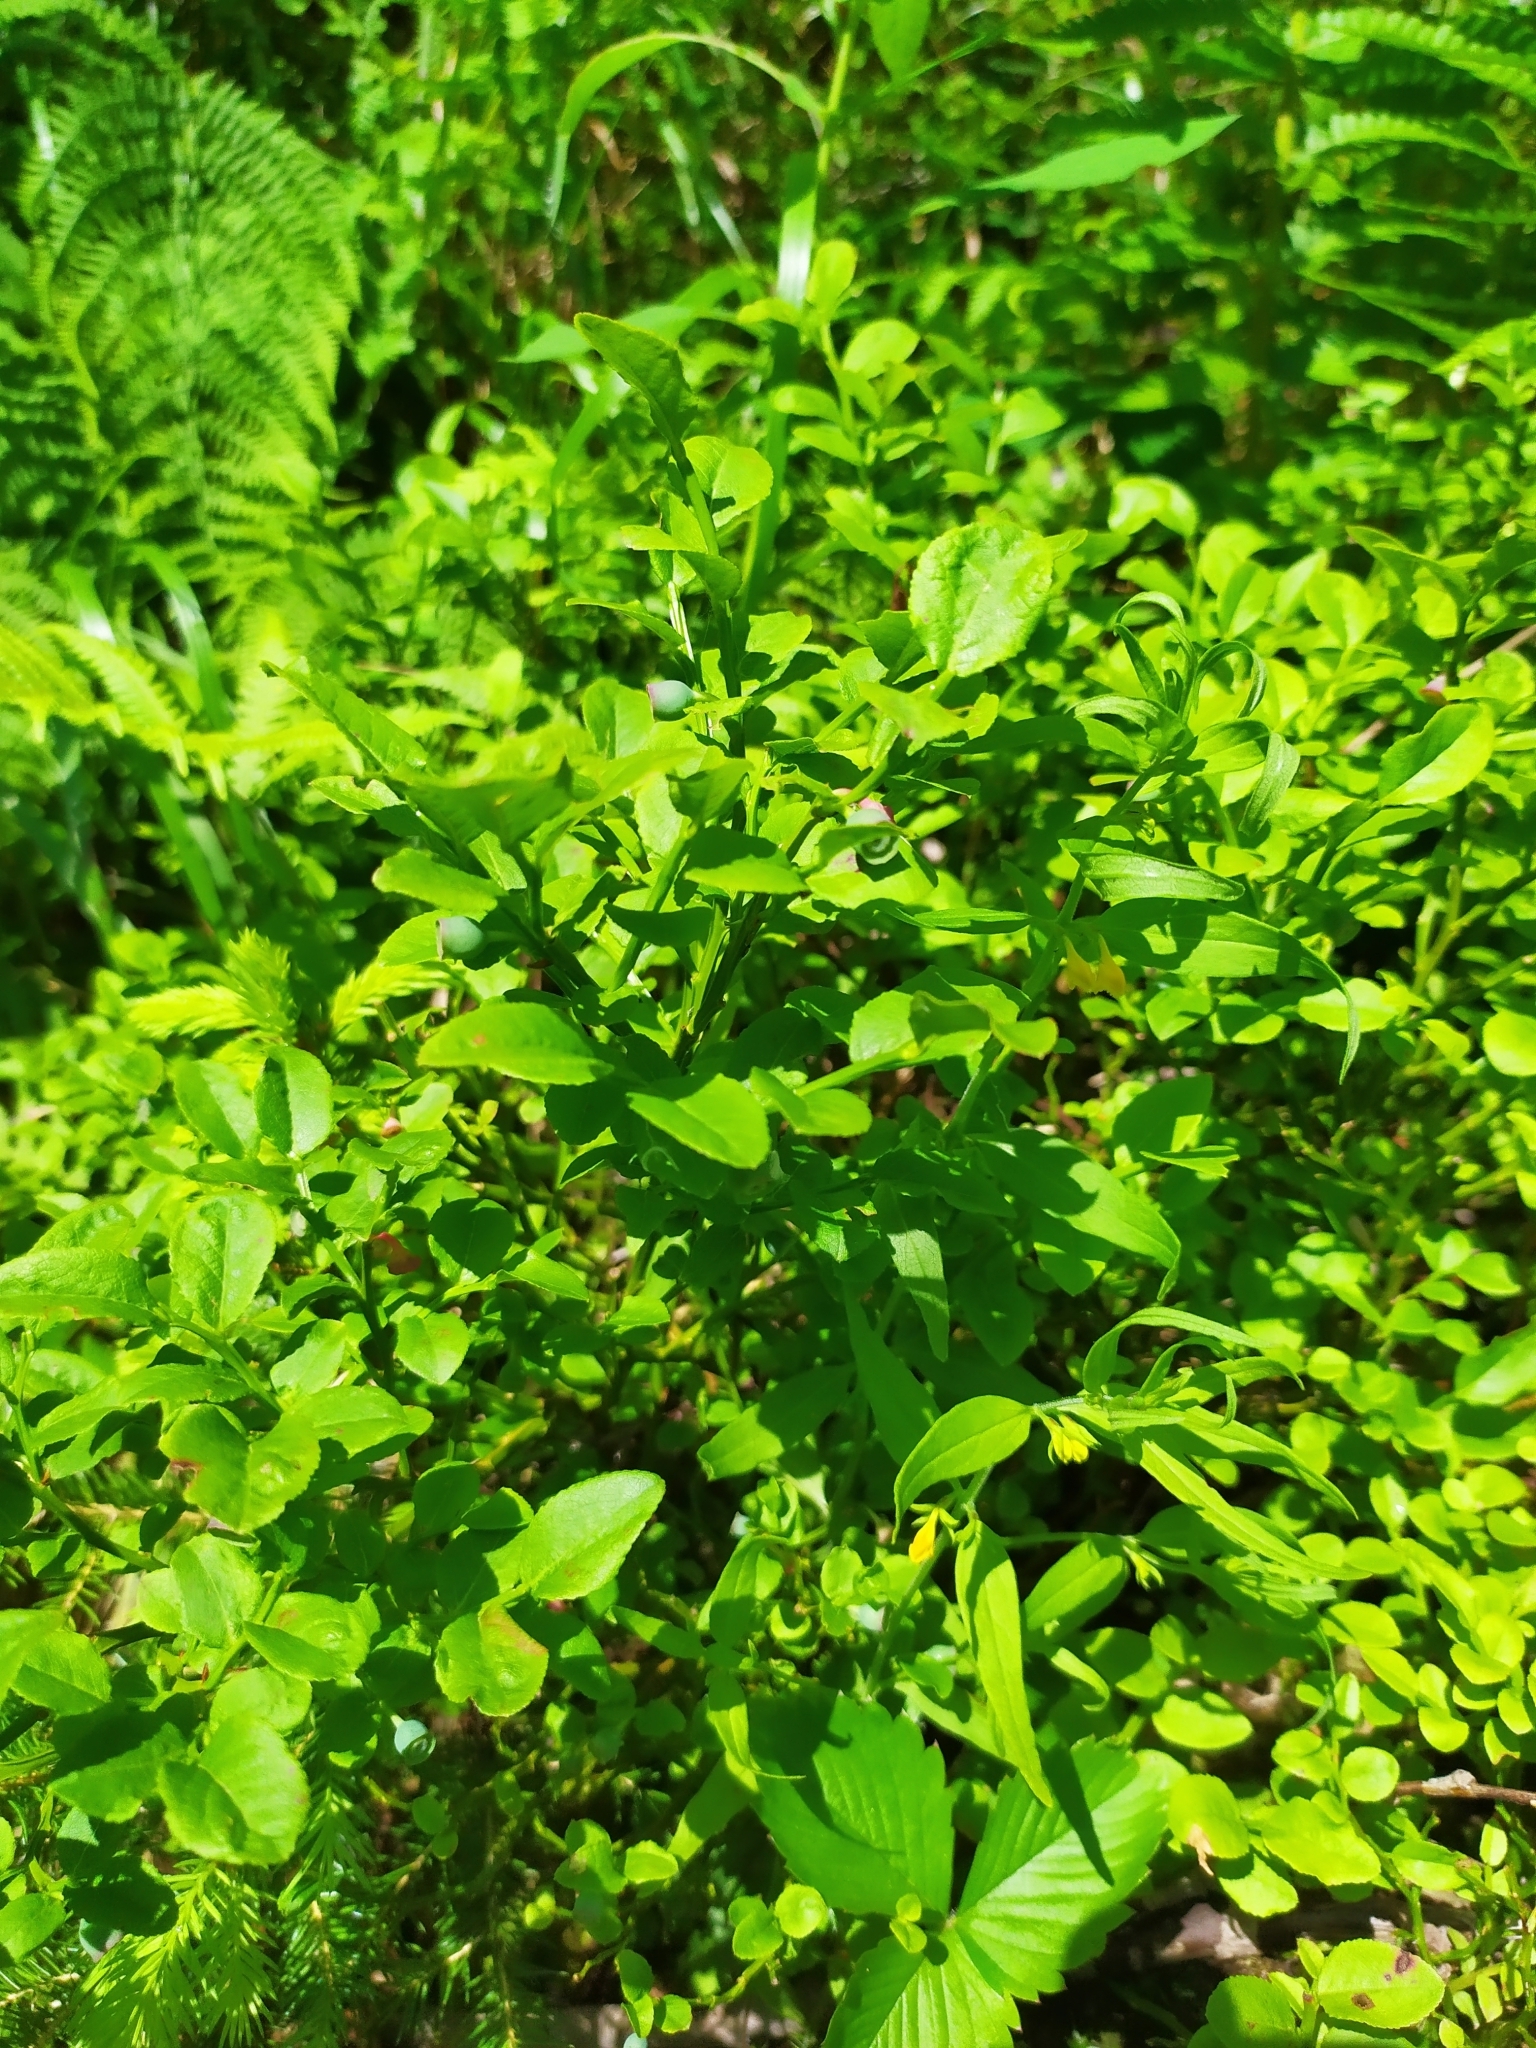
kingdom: Plantae
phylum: Tracheophyta
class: Magnoliopsida
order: Ericales
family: Ericaceae
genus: Vaccinium
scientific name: Vaccinium myrtillus
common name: Bilberry
